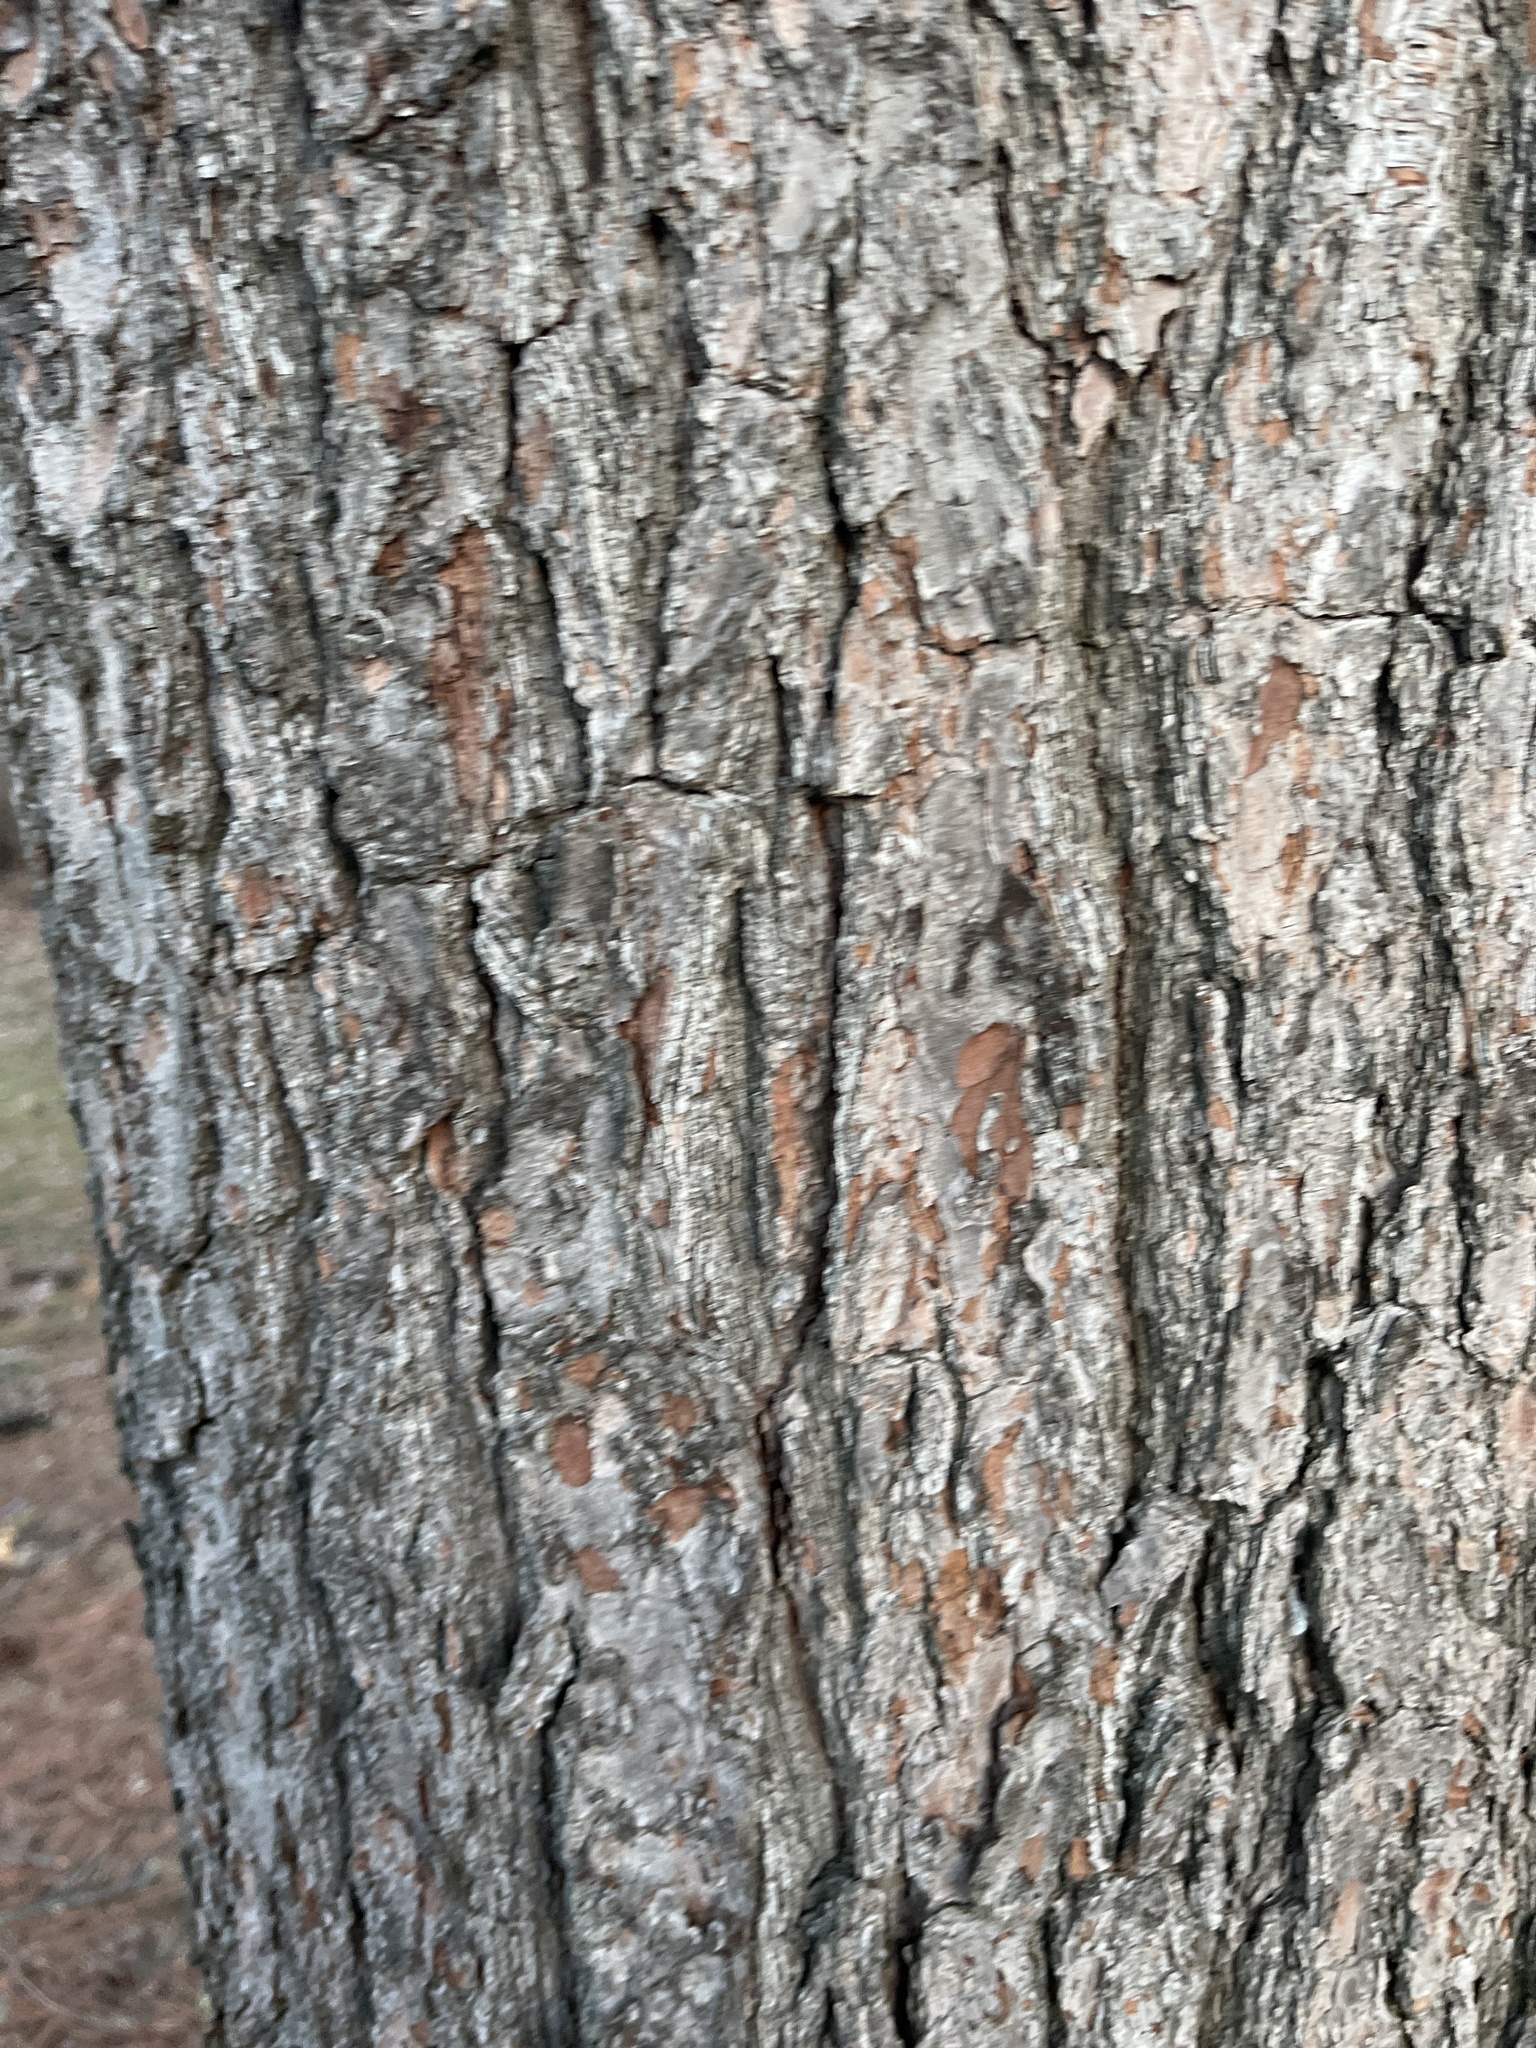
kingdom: Plantae
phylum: Tracheophyta
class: Pinopsida
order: Pinales
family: Pinaceae
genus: Pinus
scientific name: Pinus strobus
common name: Weymouth pine
